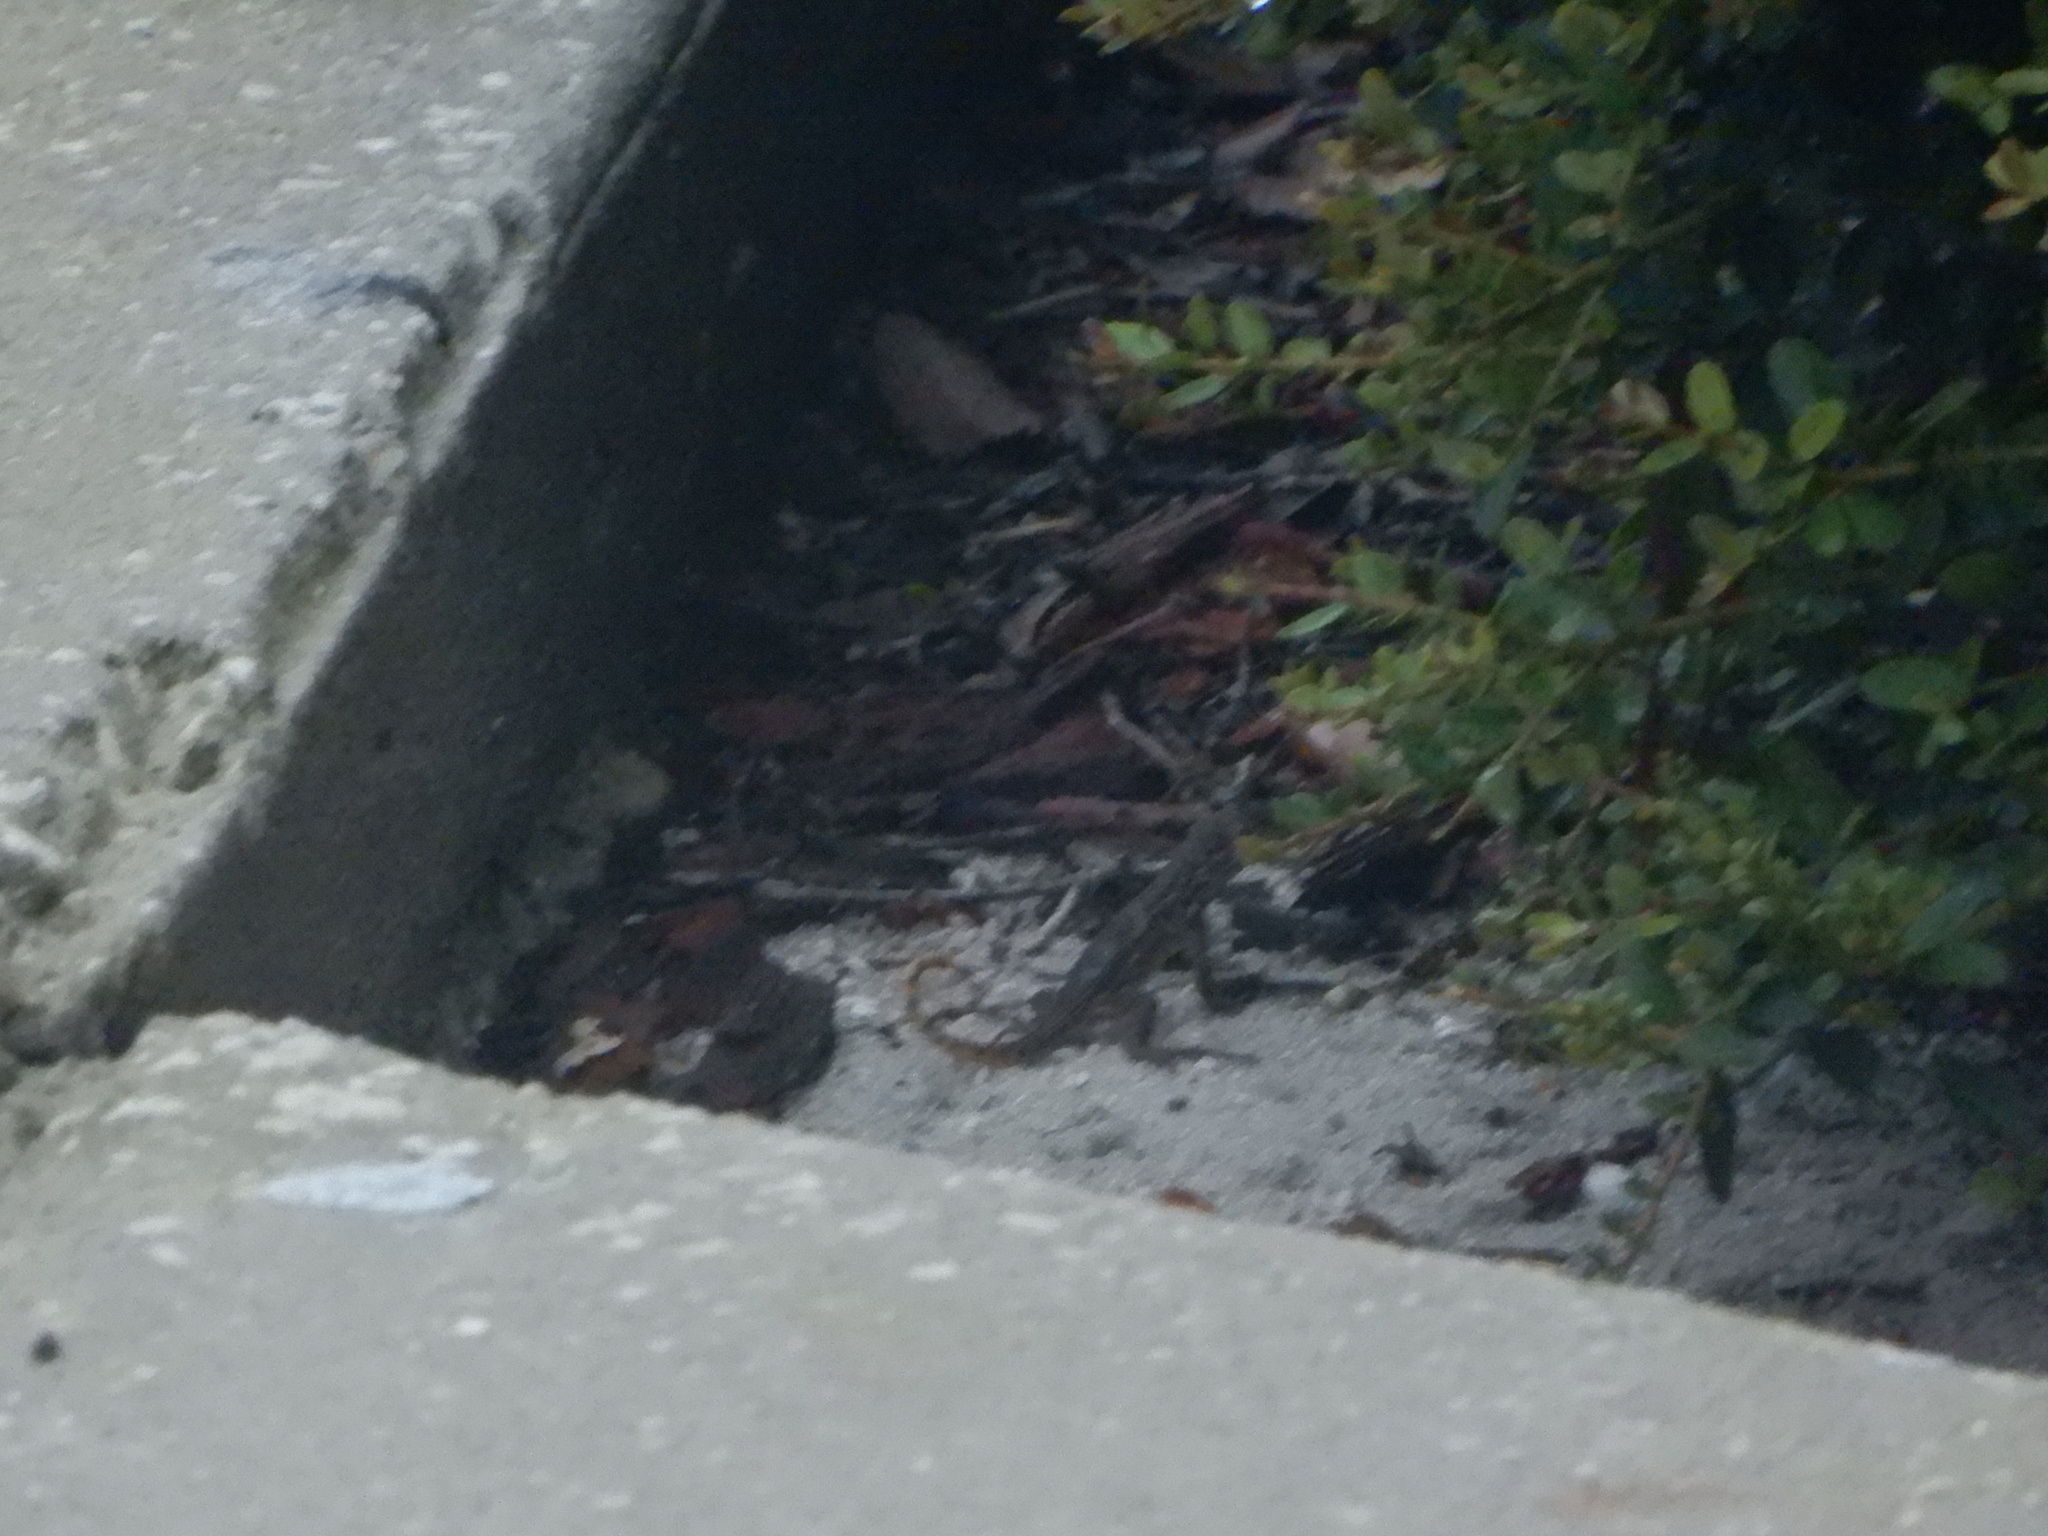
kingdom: Animalia
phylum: Chordata
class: Squamata
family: Leiocephalidae
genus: Leiocephalus
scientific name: Leiocephalus carinatus
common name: Northern curly-tailed lizard
